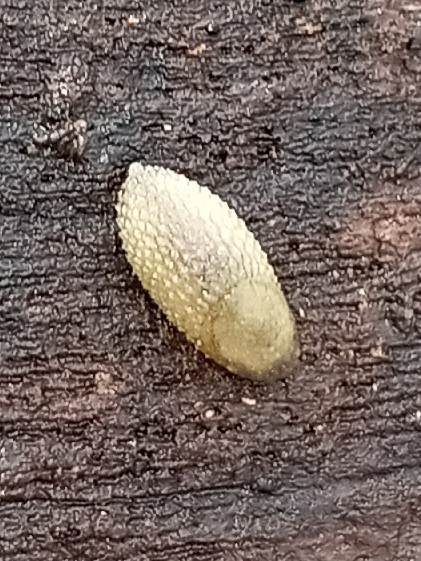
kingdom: Animalia
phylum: Mollusca
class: Gastropoda
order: Stylommatophora
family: Arionidae
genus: Arion
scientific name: Arion intermedius
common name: Hedgehog slug
